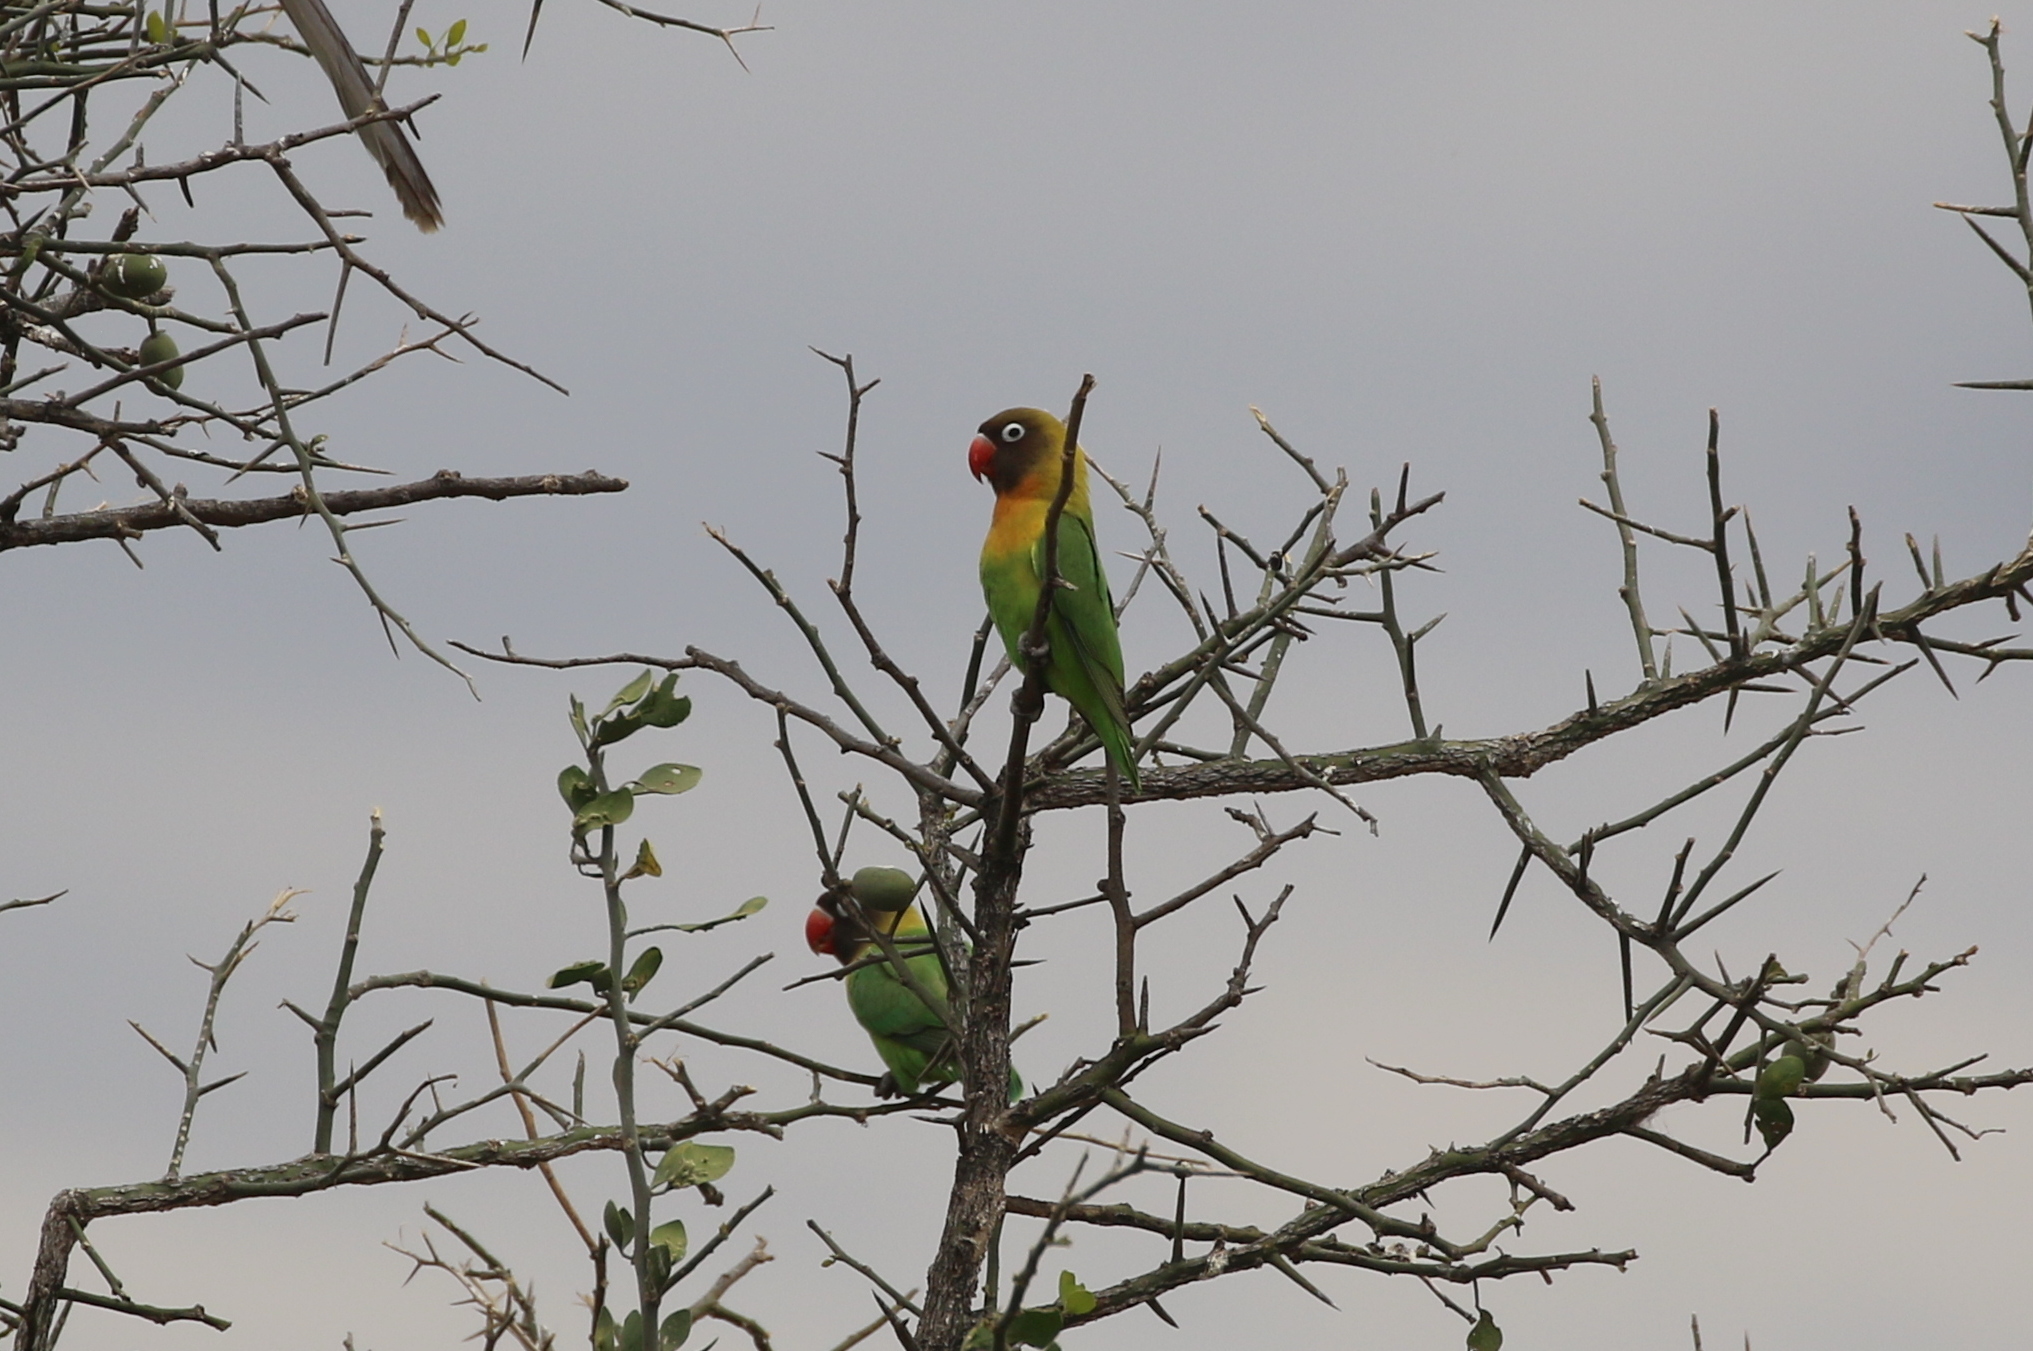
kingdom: Animalia
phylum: Chordata
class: Aves
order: Psittaciformes
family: Psittacidae
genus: Agapornis
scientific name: Agapornis personatus
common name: Yellow-collared lovebird
